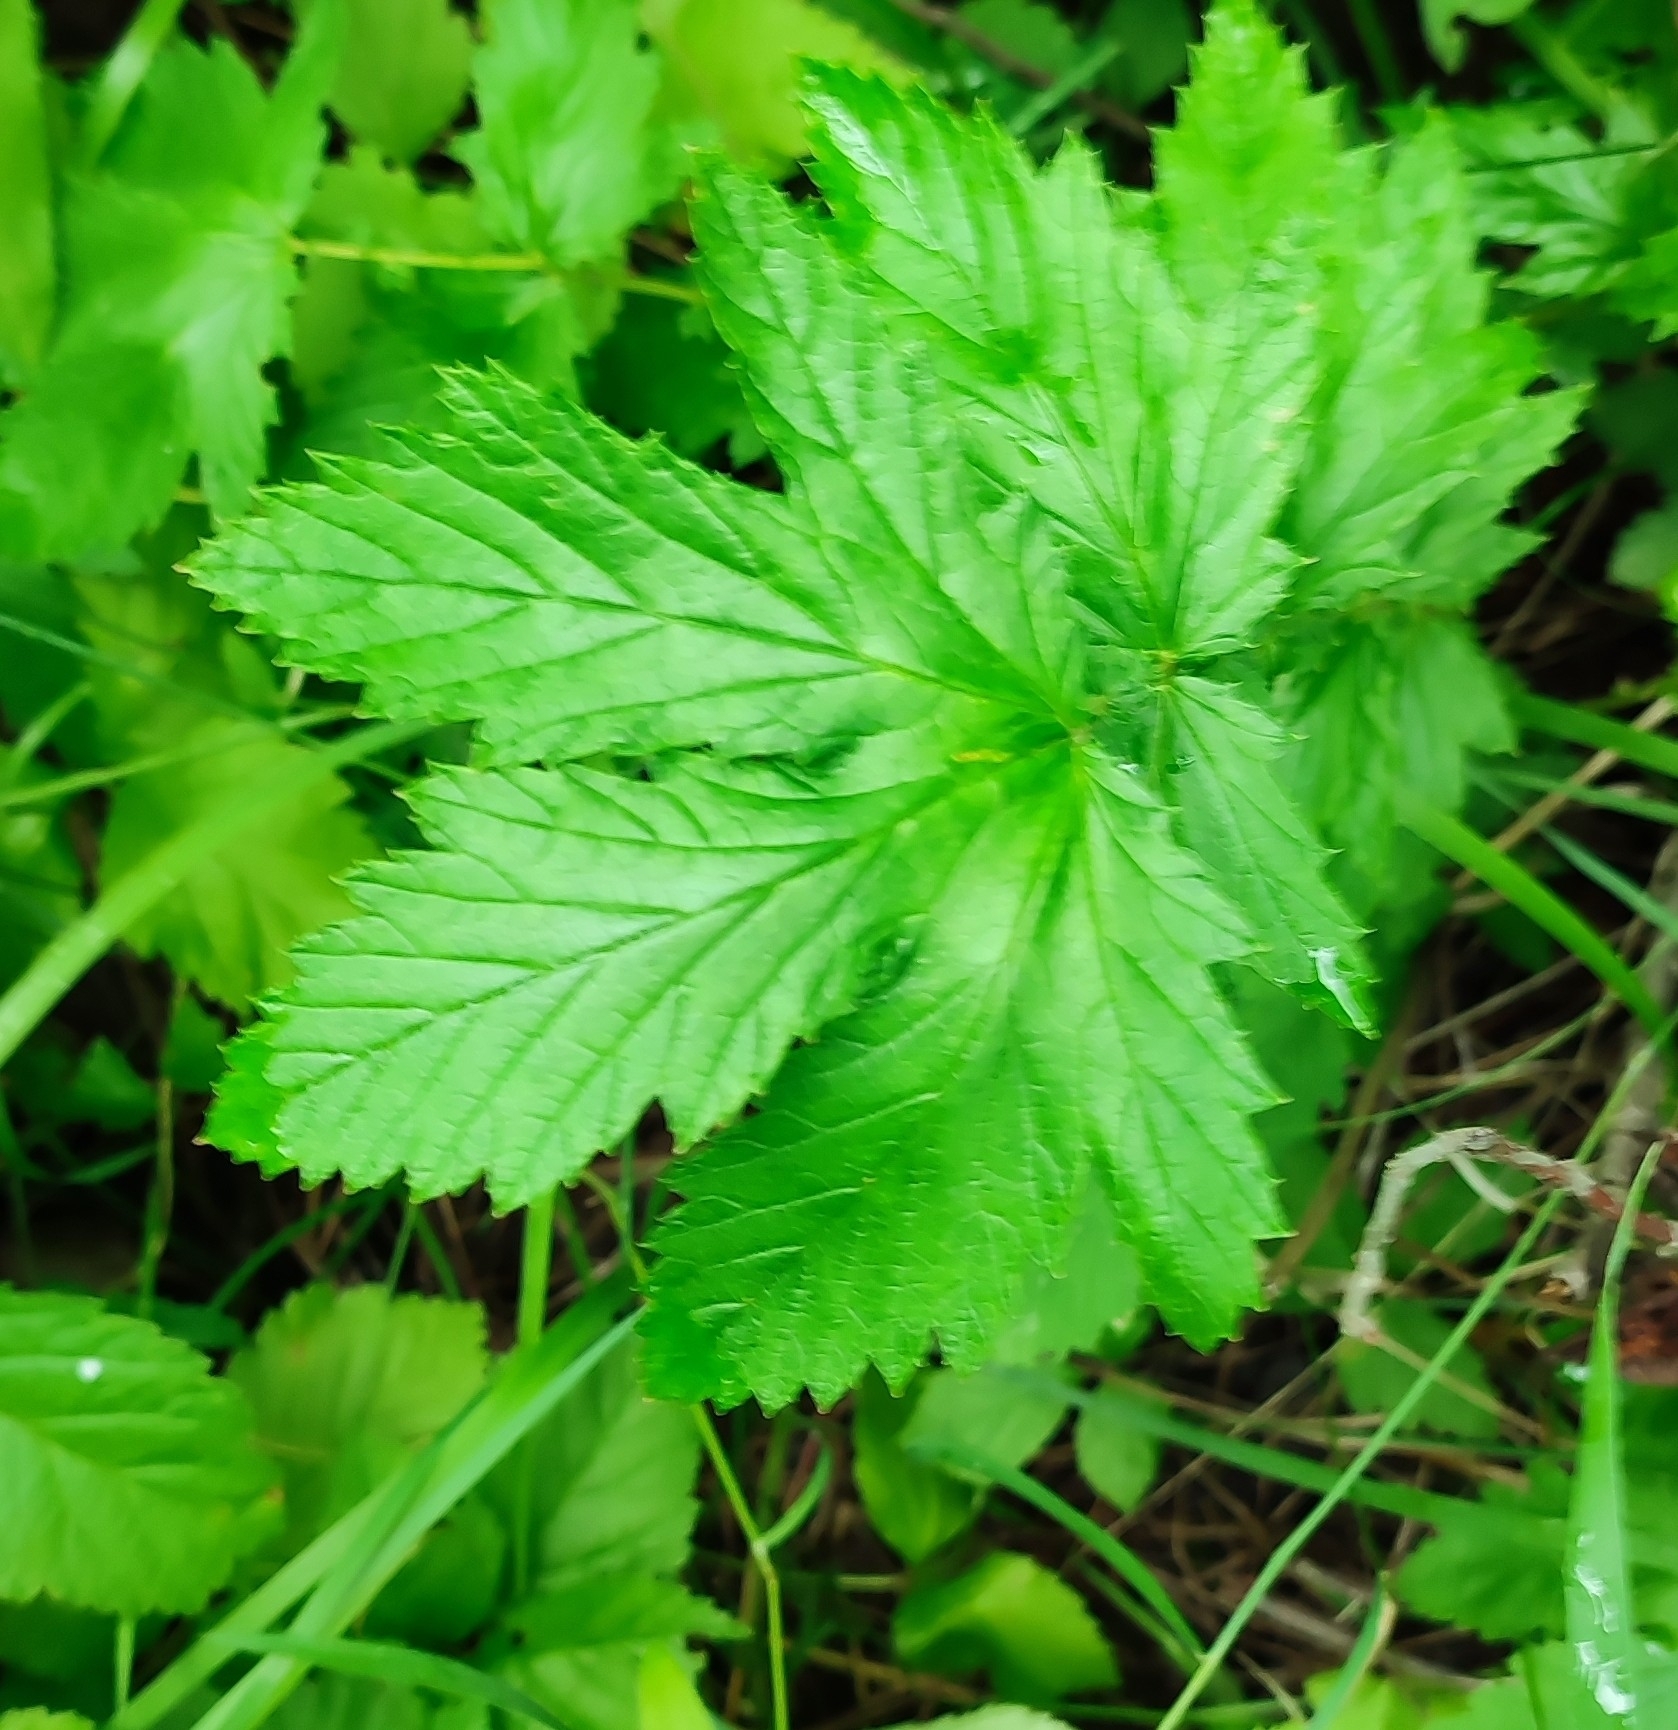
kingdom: Plantae
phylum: Tracheophyta
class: Magnoliopsida
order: Rosales
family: Rosaceae
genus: Filipendula
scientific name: Filipendula ulmaria
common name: Meadowsweet
